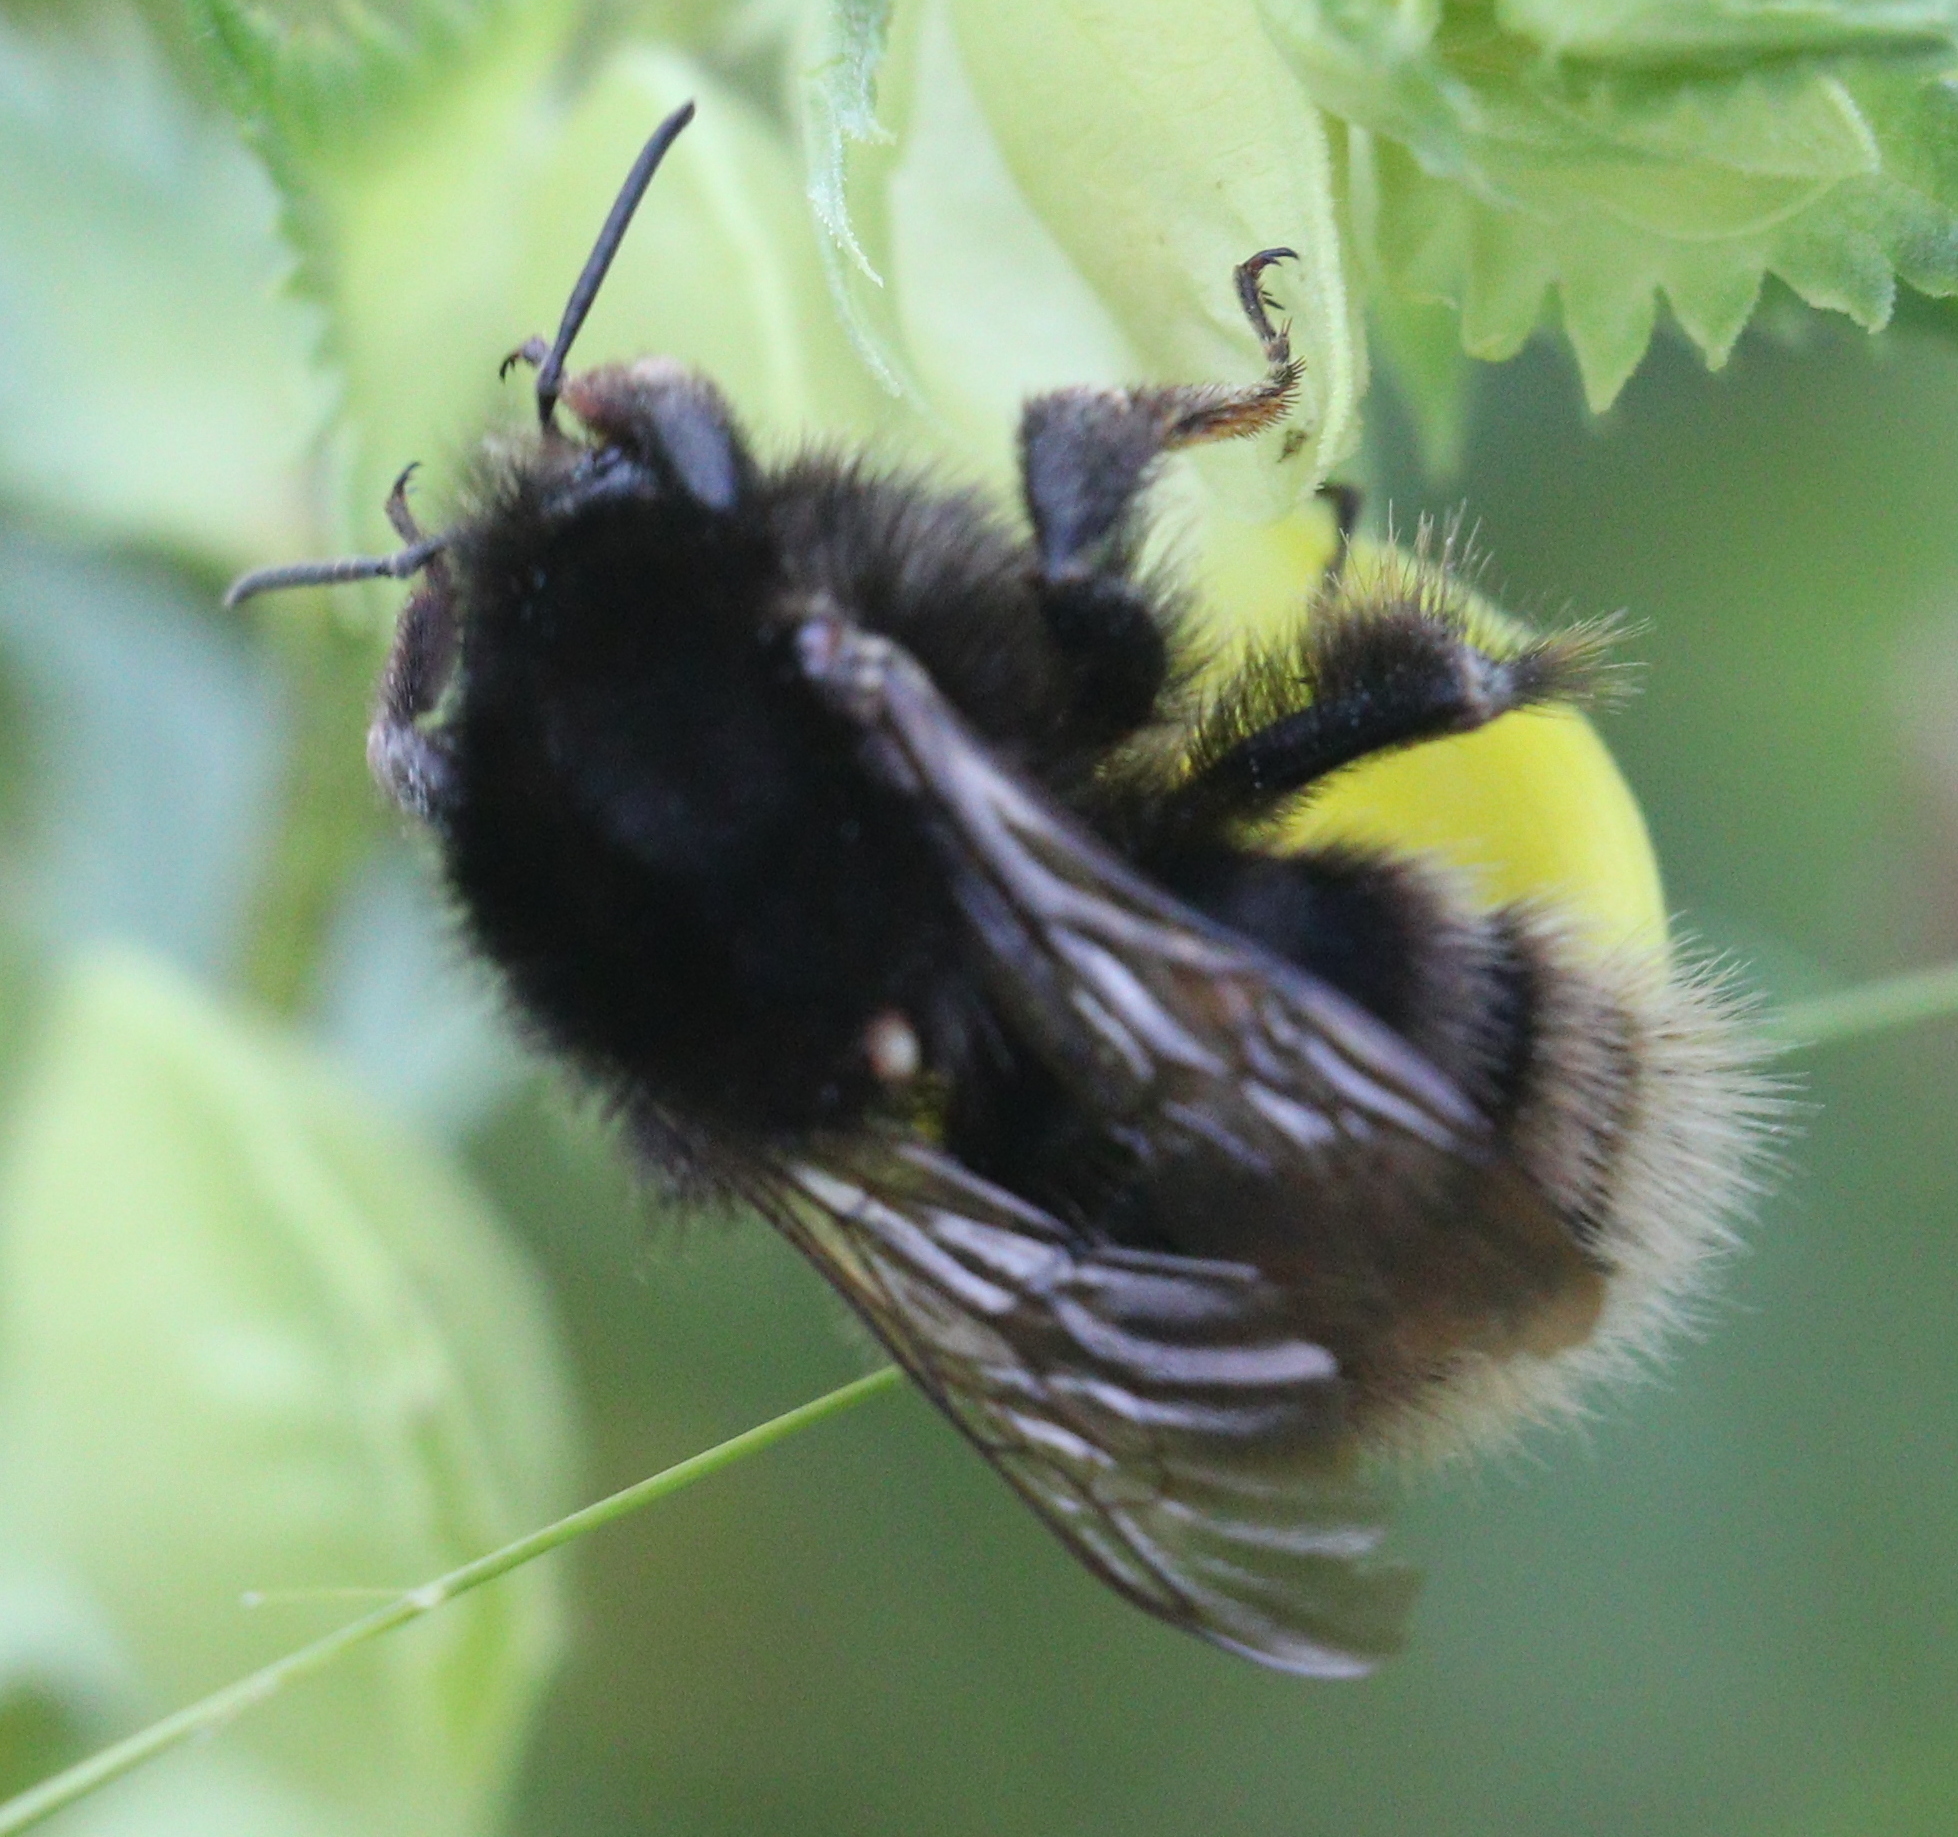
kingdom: Animalia
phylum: Arthropoda
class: Insecta
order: Hymenoptera
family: Apidae
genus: Bombus
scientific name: Bombus humilis
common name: Brown-banded carder-bee
